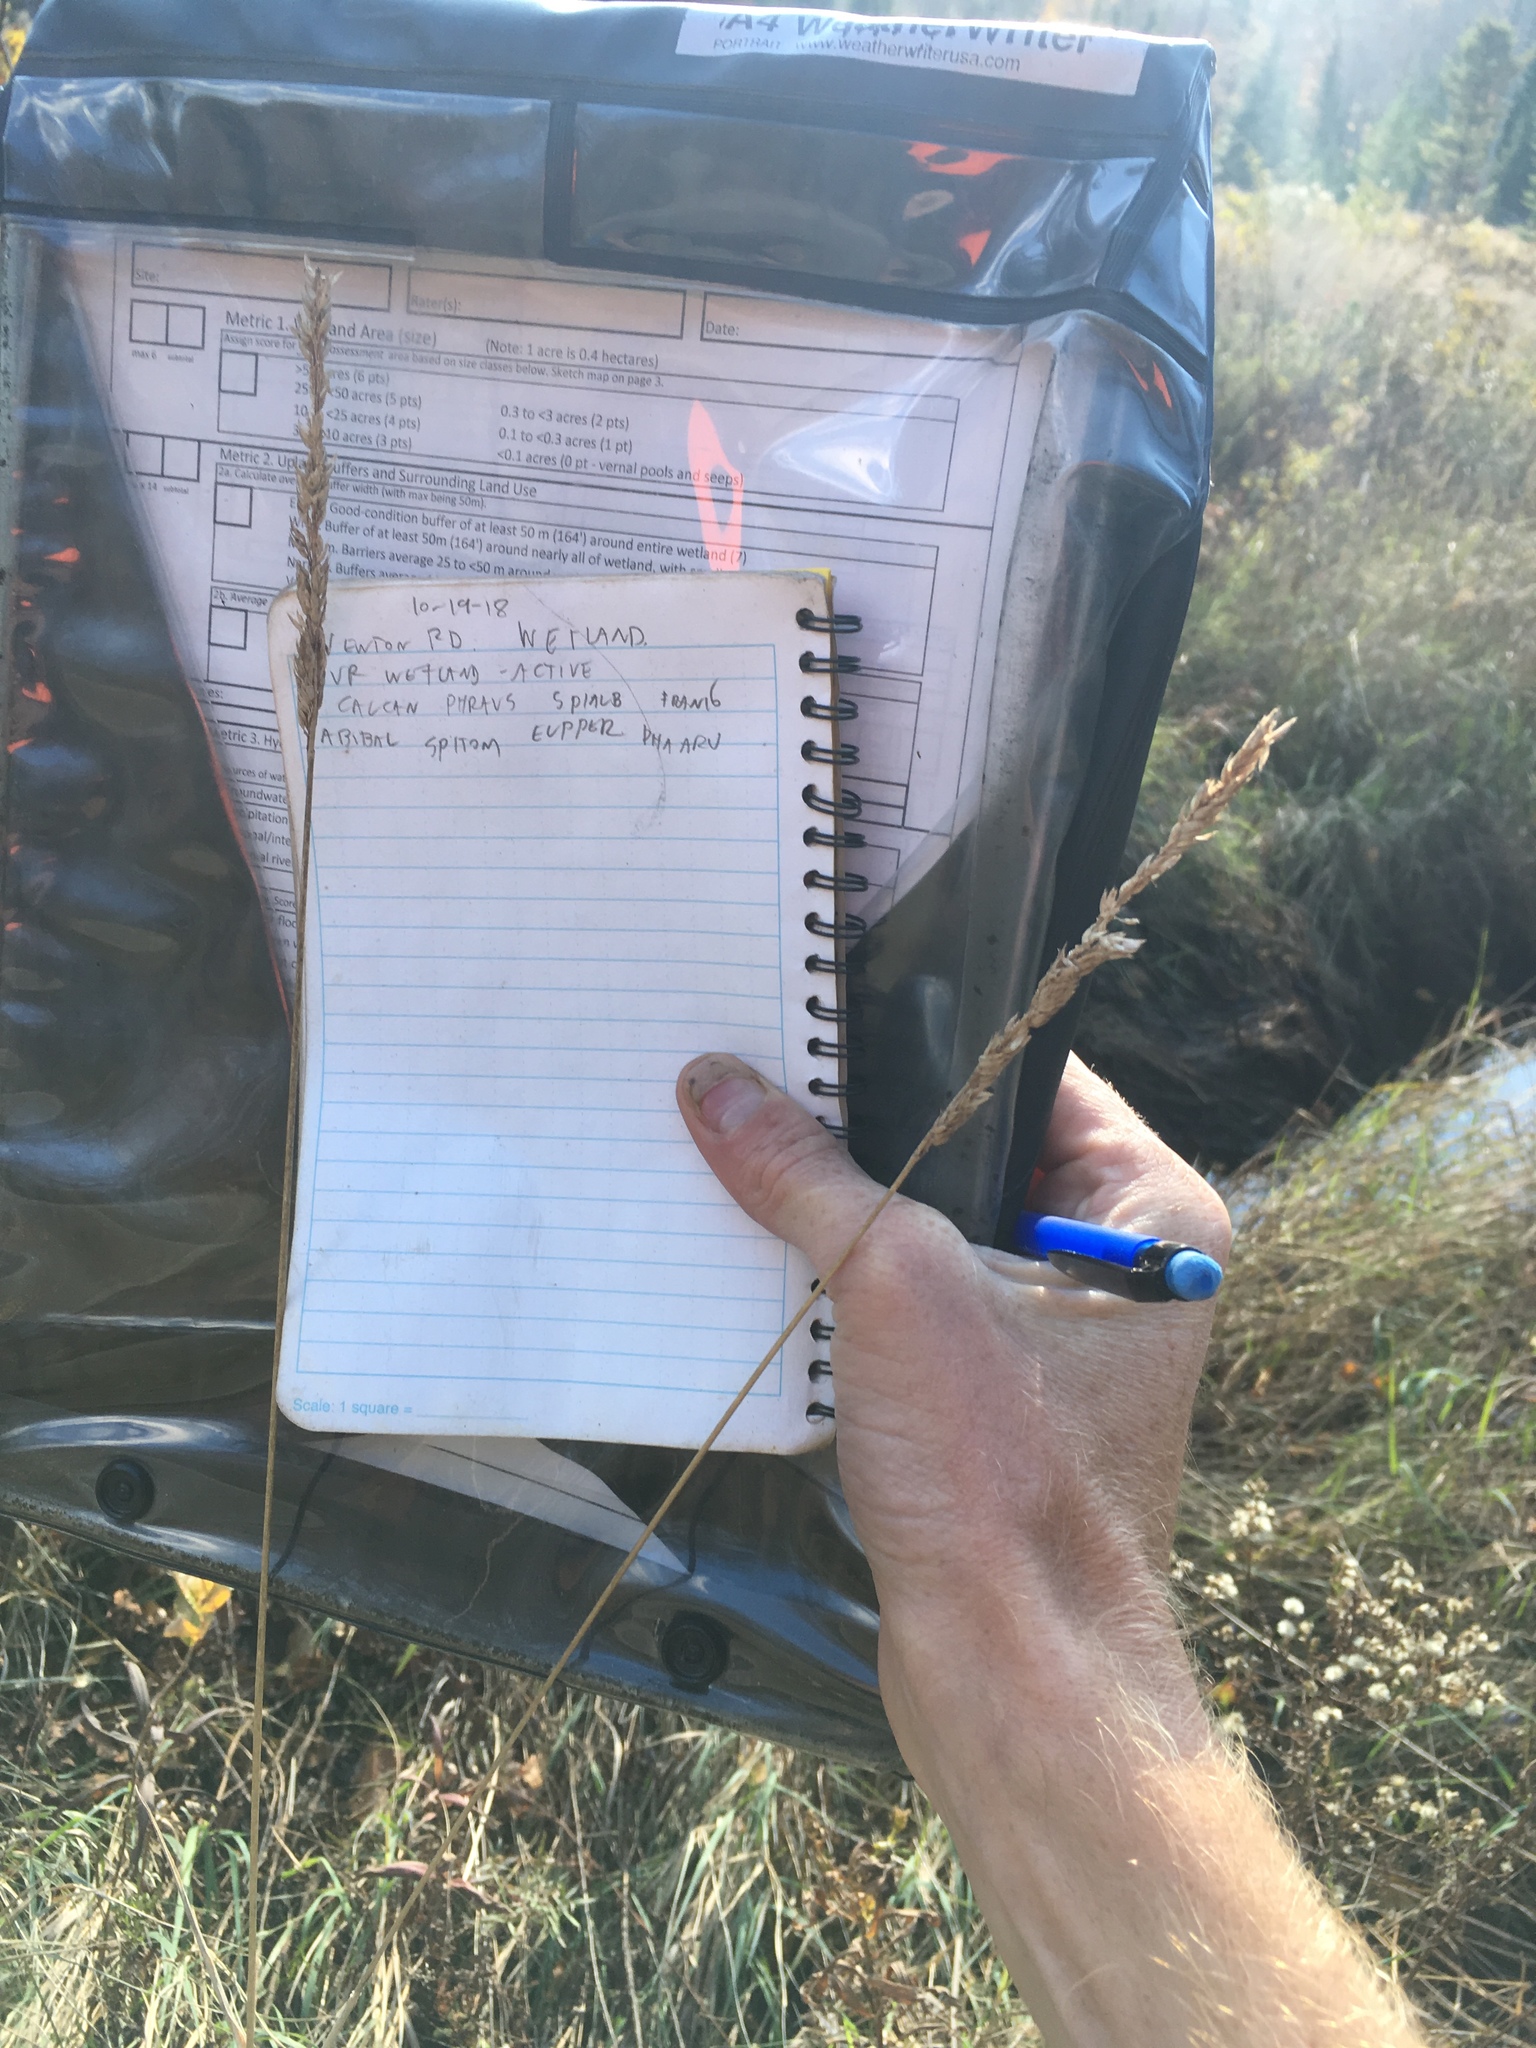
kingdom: Plantae
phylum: Tracheophyta
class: Liliopsida
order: Poales
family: Poaceae
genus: Phalaris
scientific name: Phalaris arundinacea
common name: Reed canary-grass
